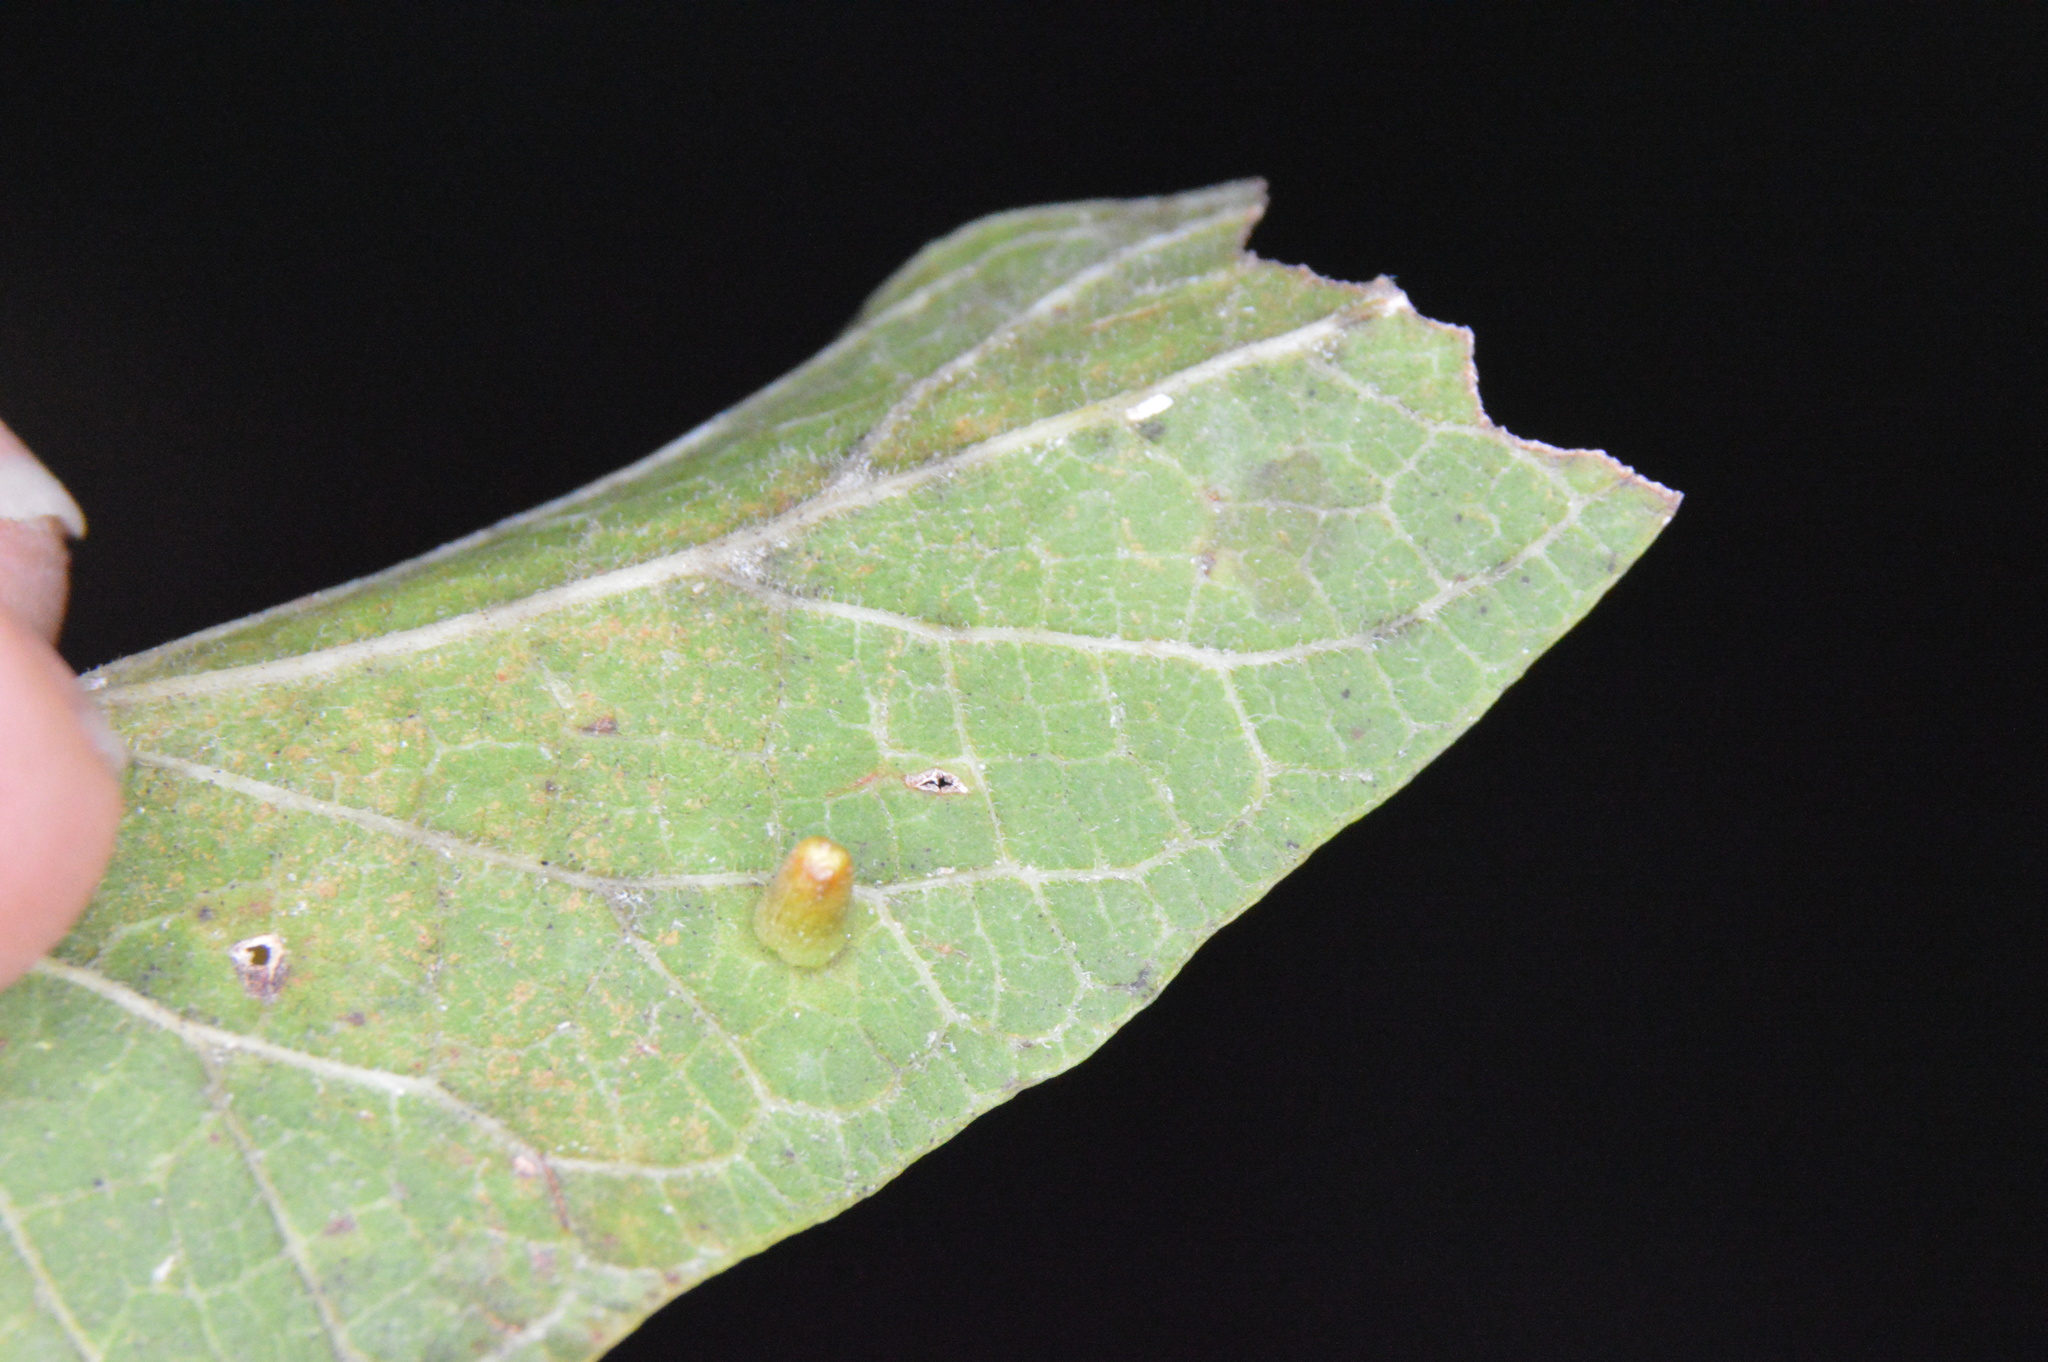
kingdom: Animalia
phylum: Arthropoda
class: Insecta
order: Diptera
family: Cecidomyiidae
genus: Celticecis
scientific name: Celticecis aciculata
